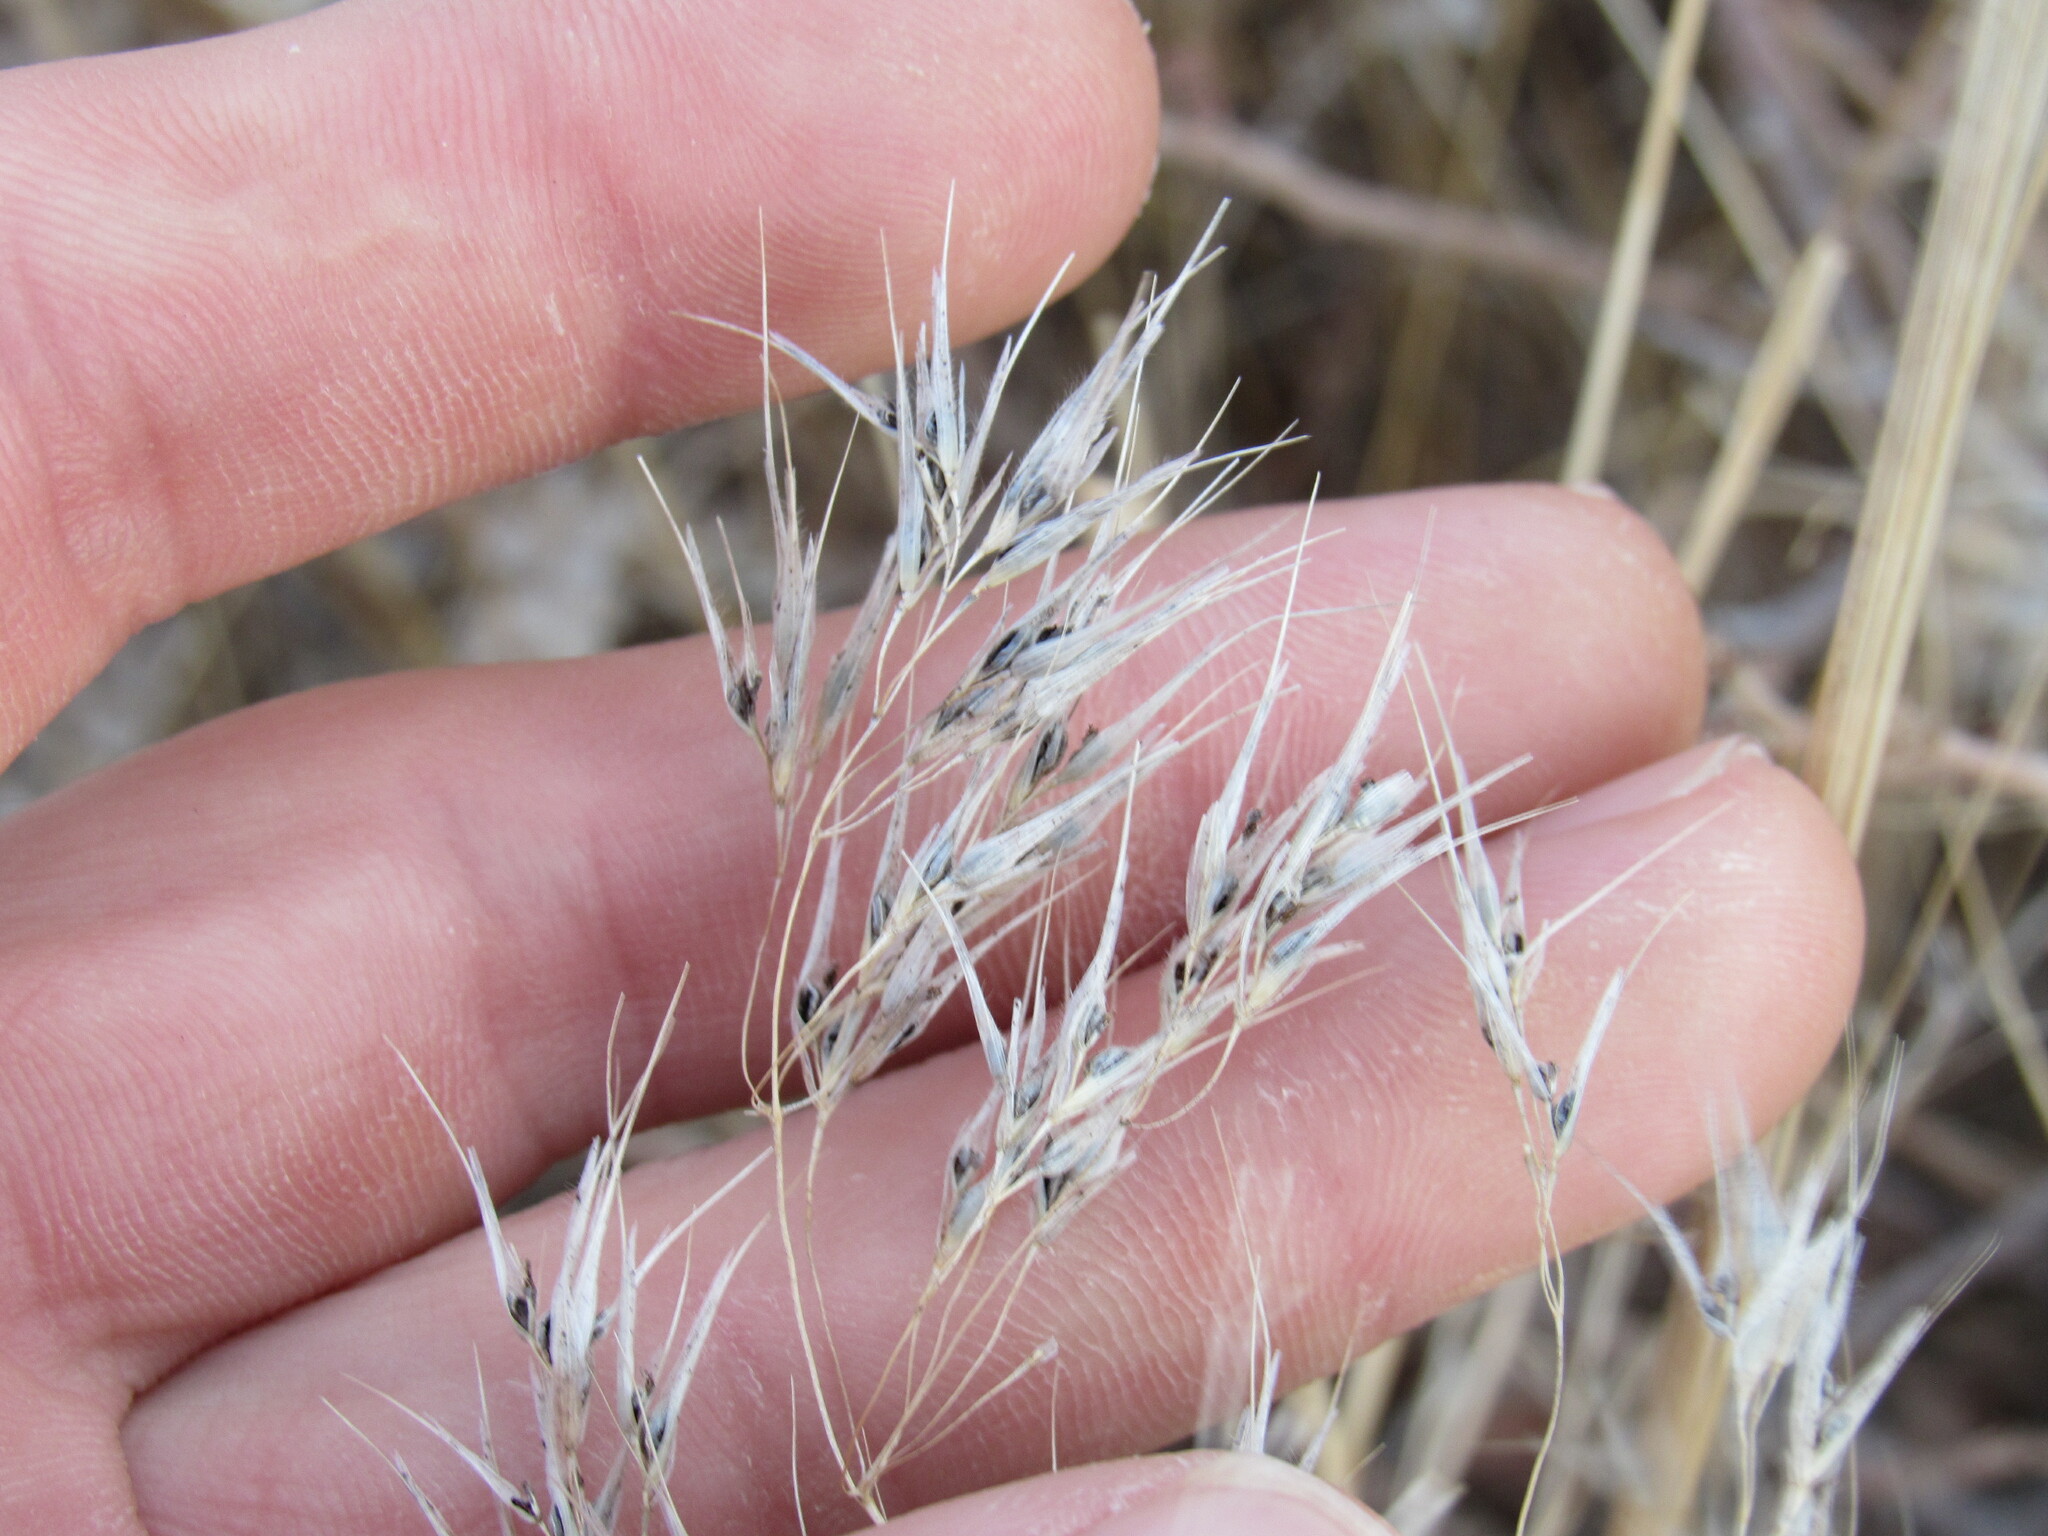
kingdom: Fungi
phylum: Basidiomycota
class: Ustilaginomycetes
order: Ustilaginales
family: Ustilaginaceae
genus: Ustilago
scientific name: Ustilago bullata
